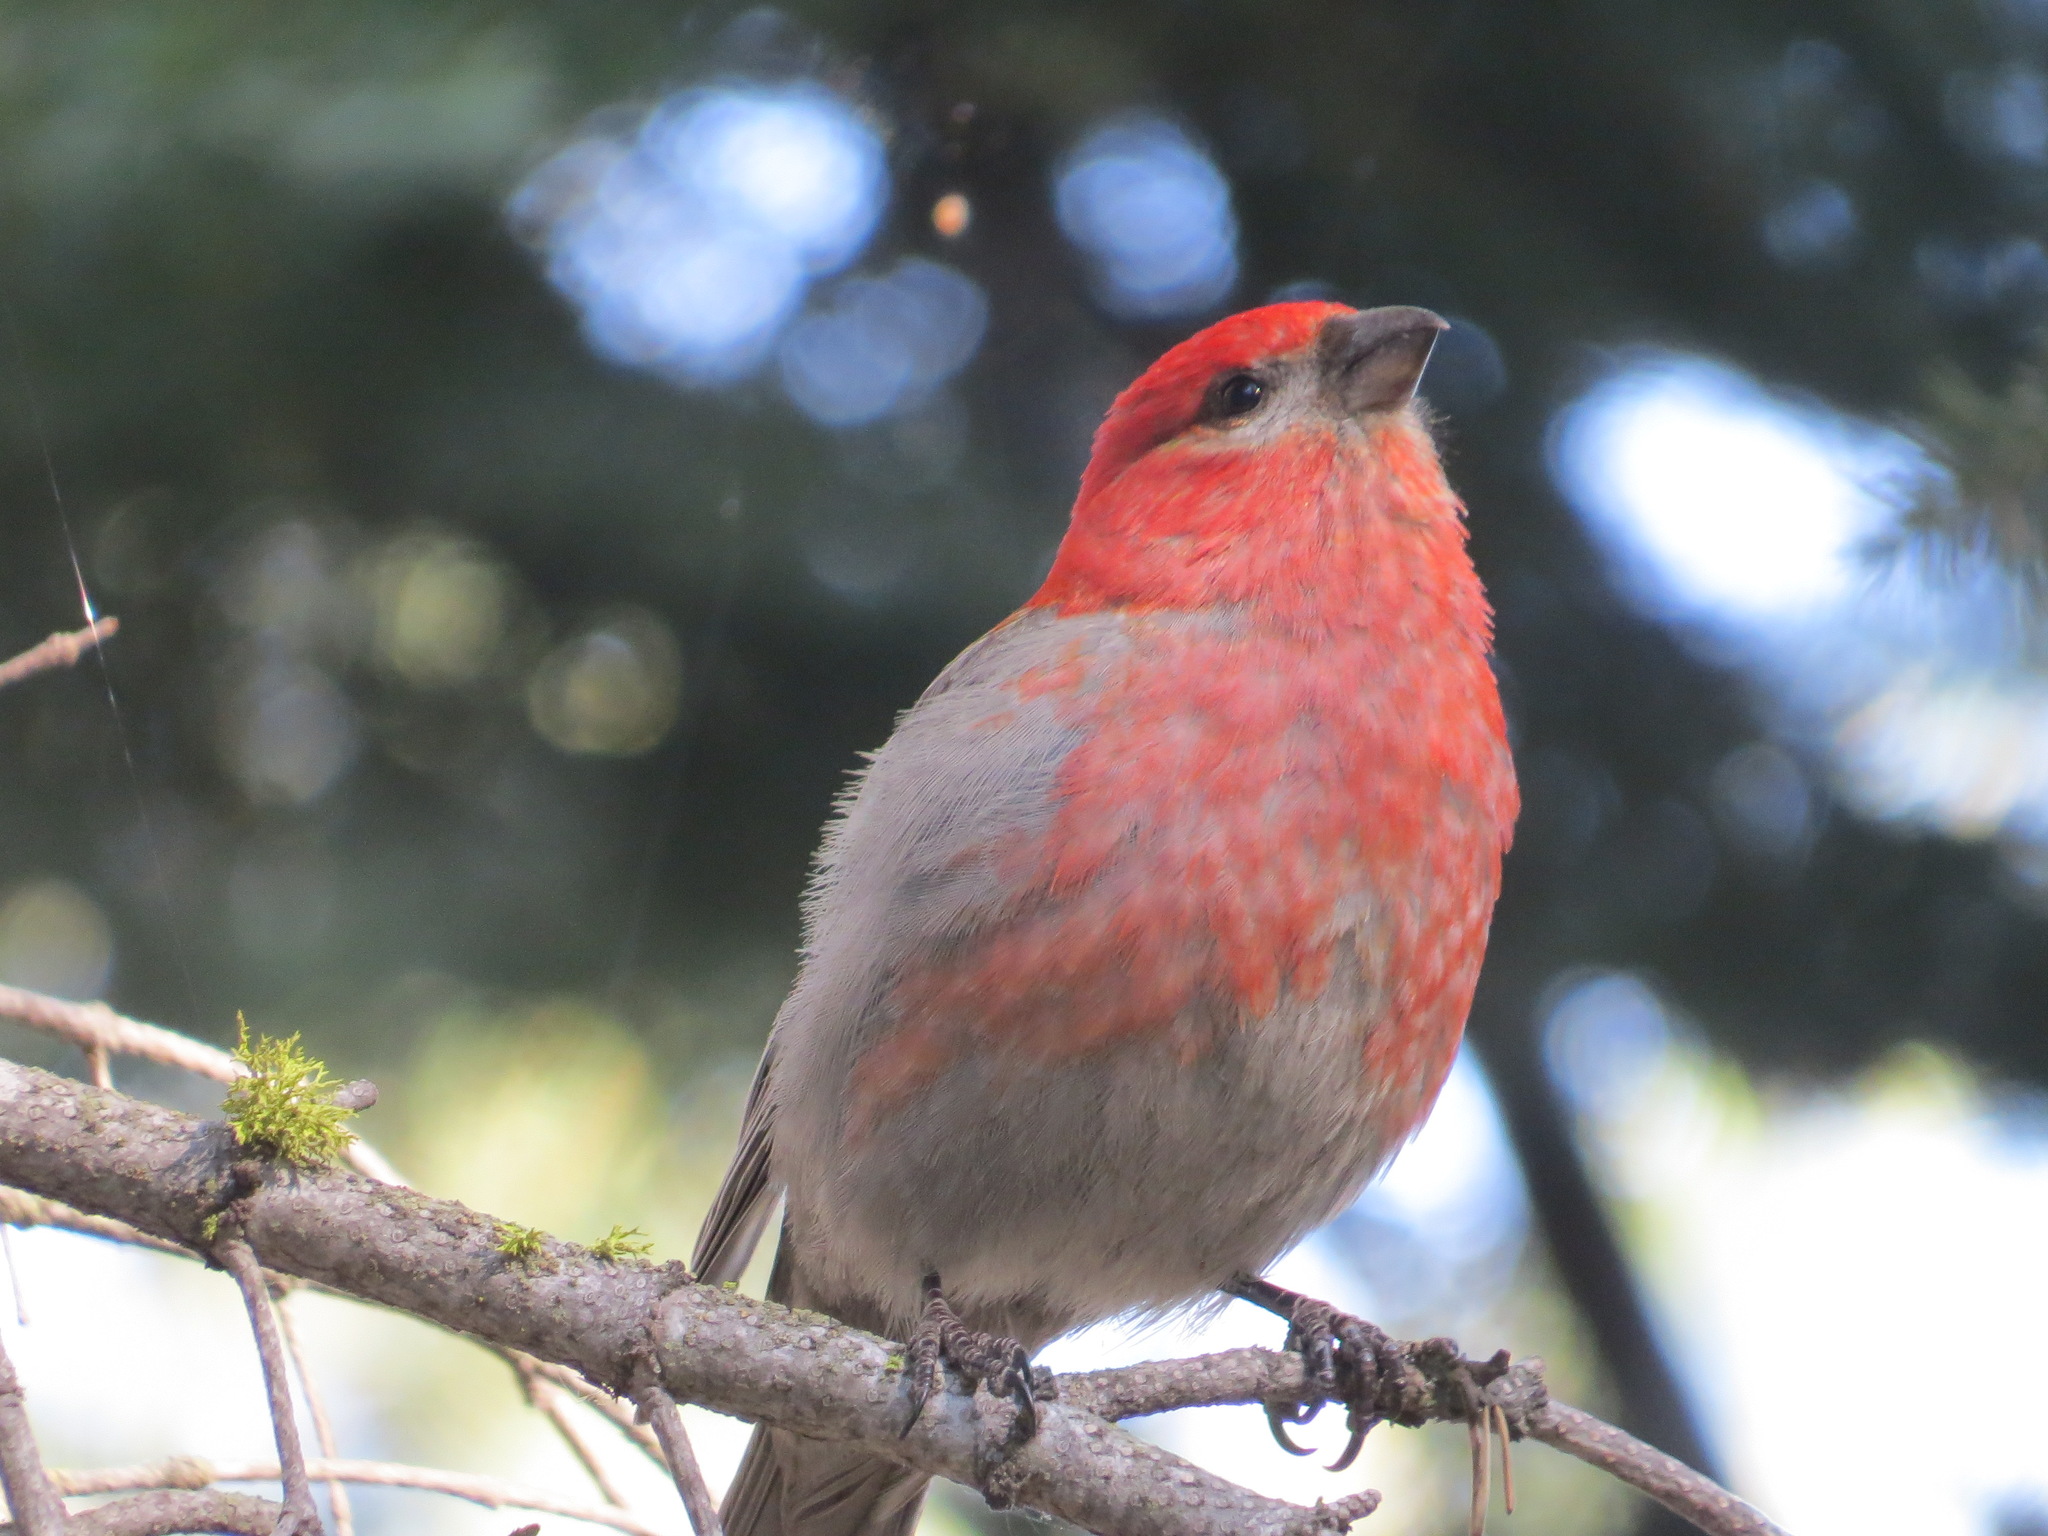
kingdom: Animalia
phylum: Chordata
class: Aves
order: Passeriformes
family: Fringillidae
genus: Pinicola
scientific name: Pinicola enucleator
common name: Pine grosbeak
